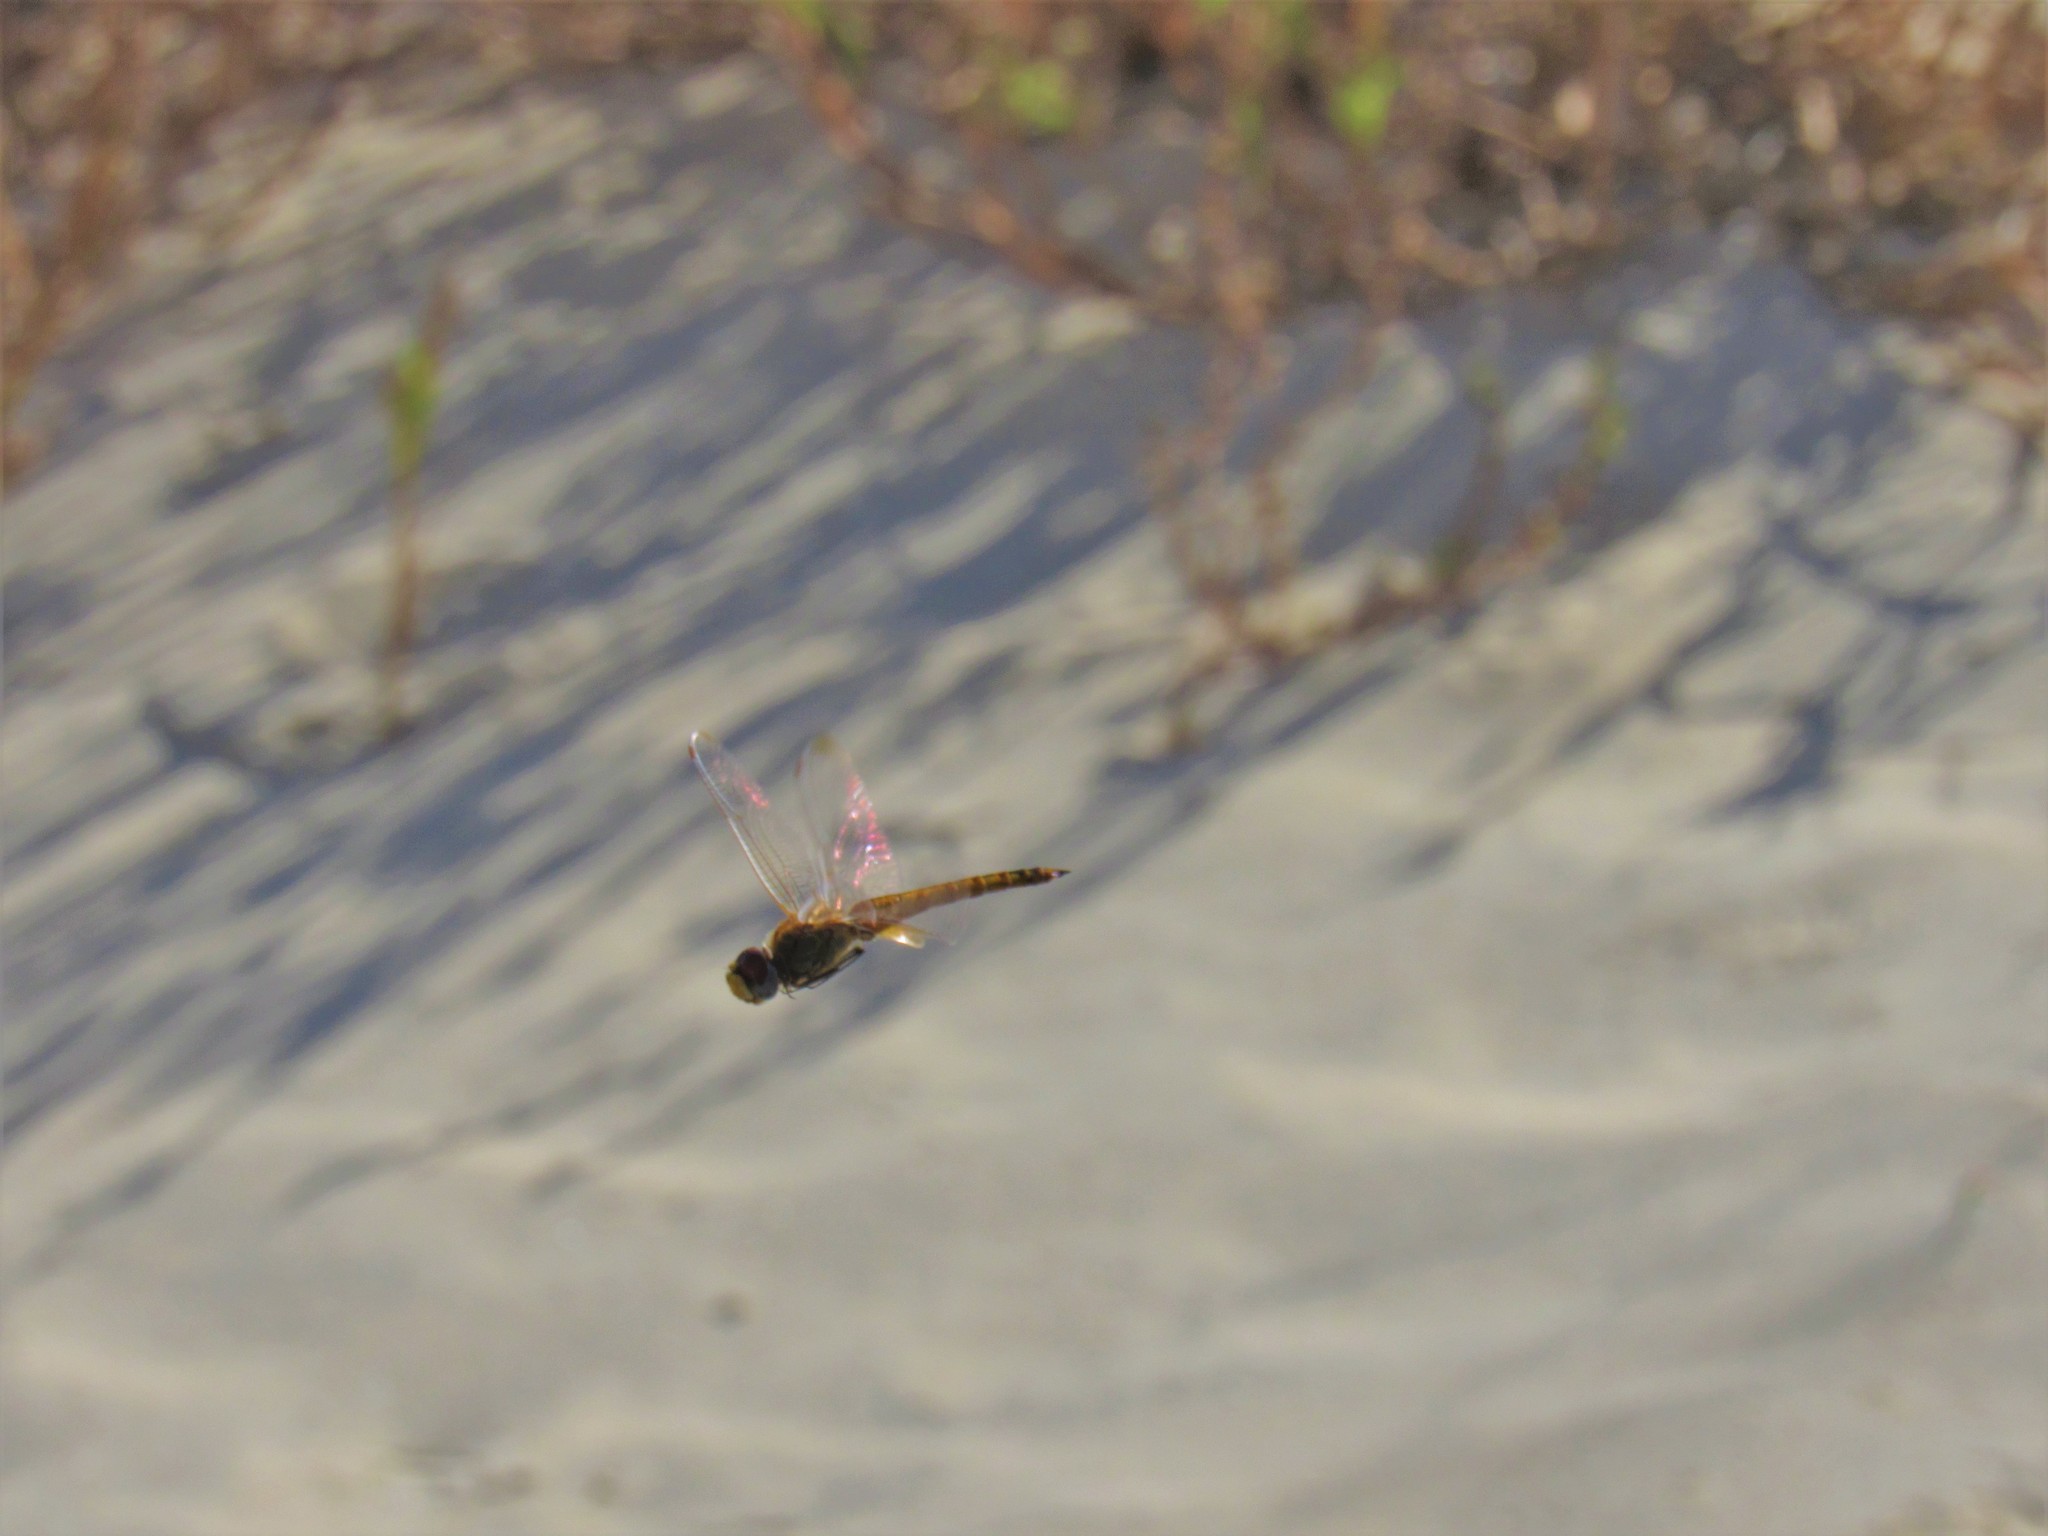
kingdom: Animalia
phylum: Arthropoda
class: Insecta
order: Odonata
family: Libellulidae
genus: Pantala
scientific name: Pantala flavescens
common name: Wandering glider
